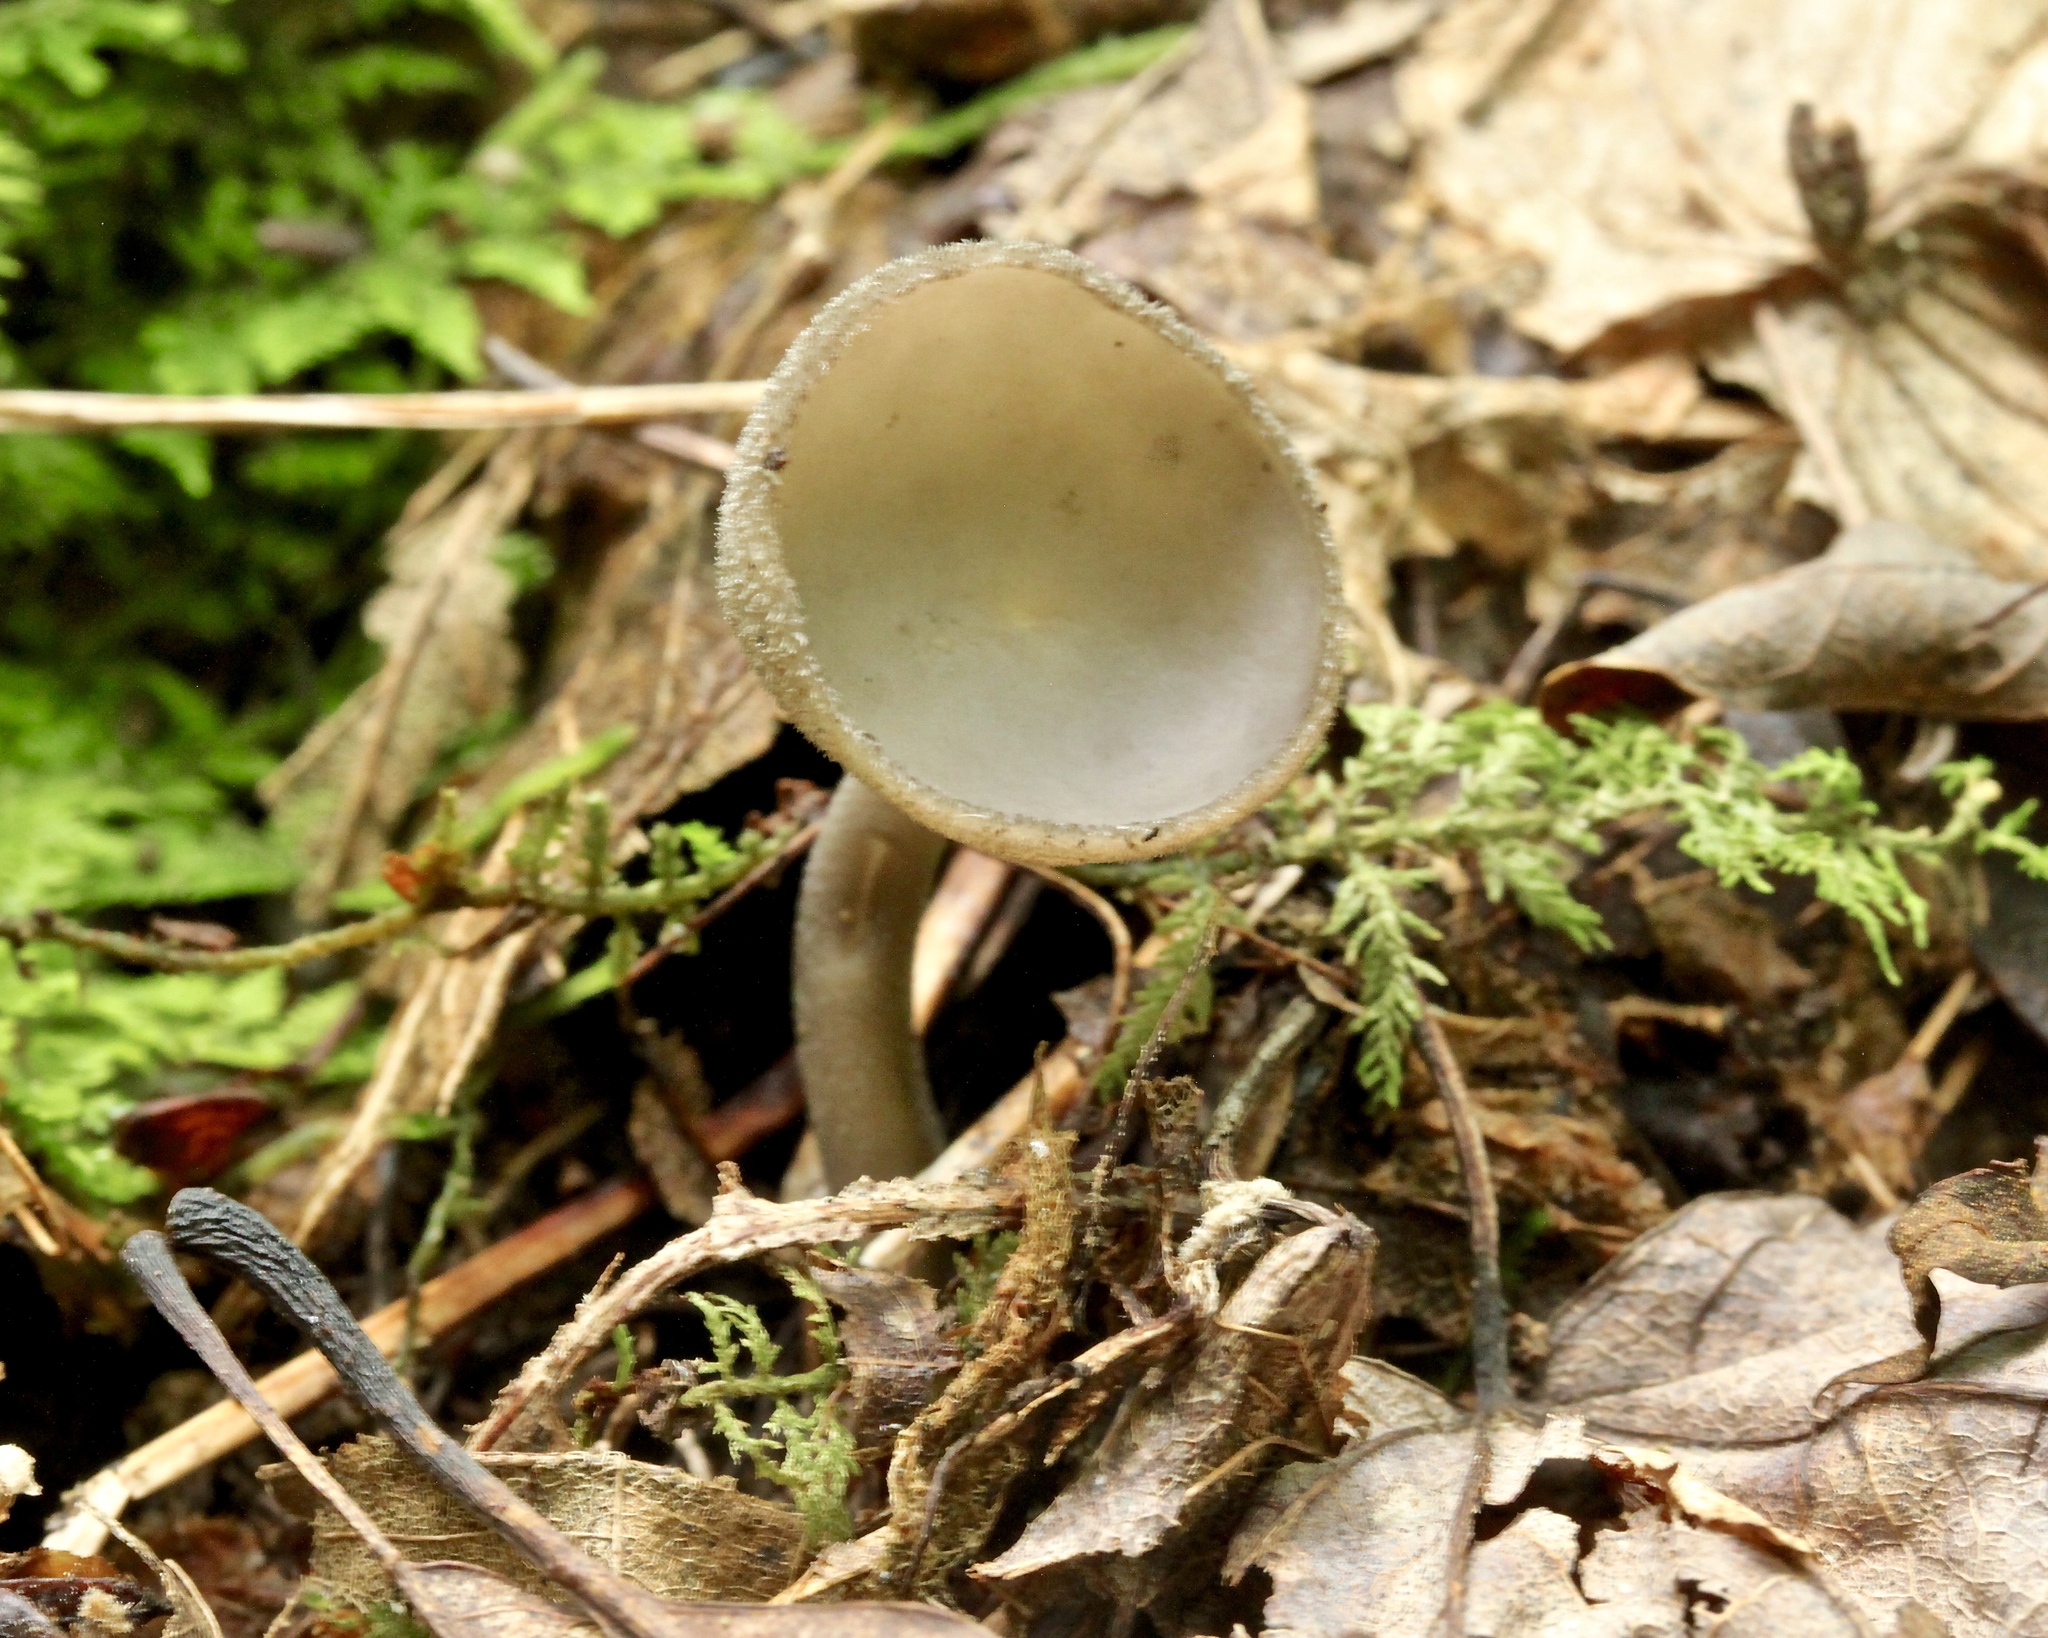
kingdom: Fungi
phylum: Ascomycota
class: Pezizomycetes
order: Pezizales
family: Helvellaceae
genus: Helvella
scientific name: Helvella macropus
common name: Felt saddle
